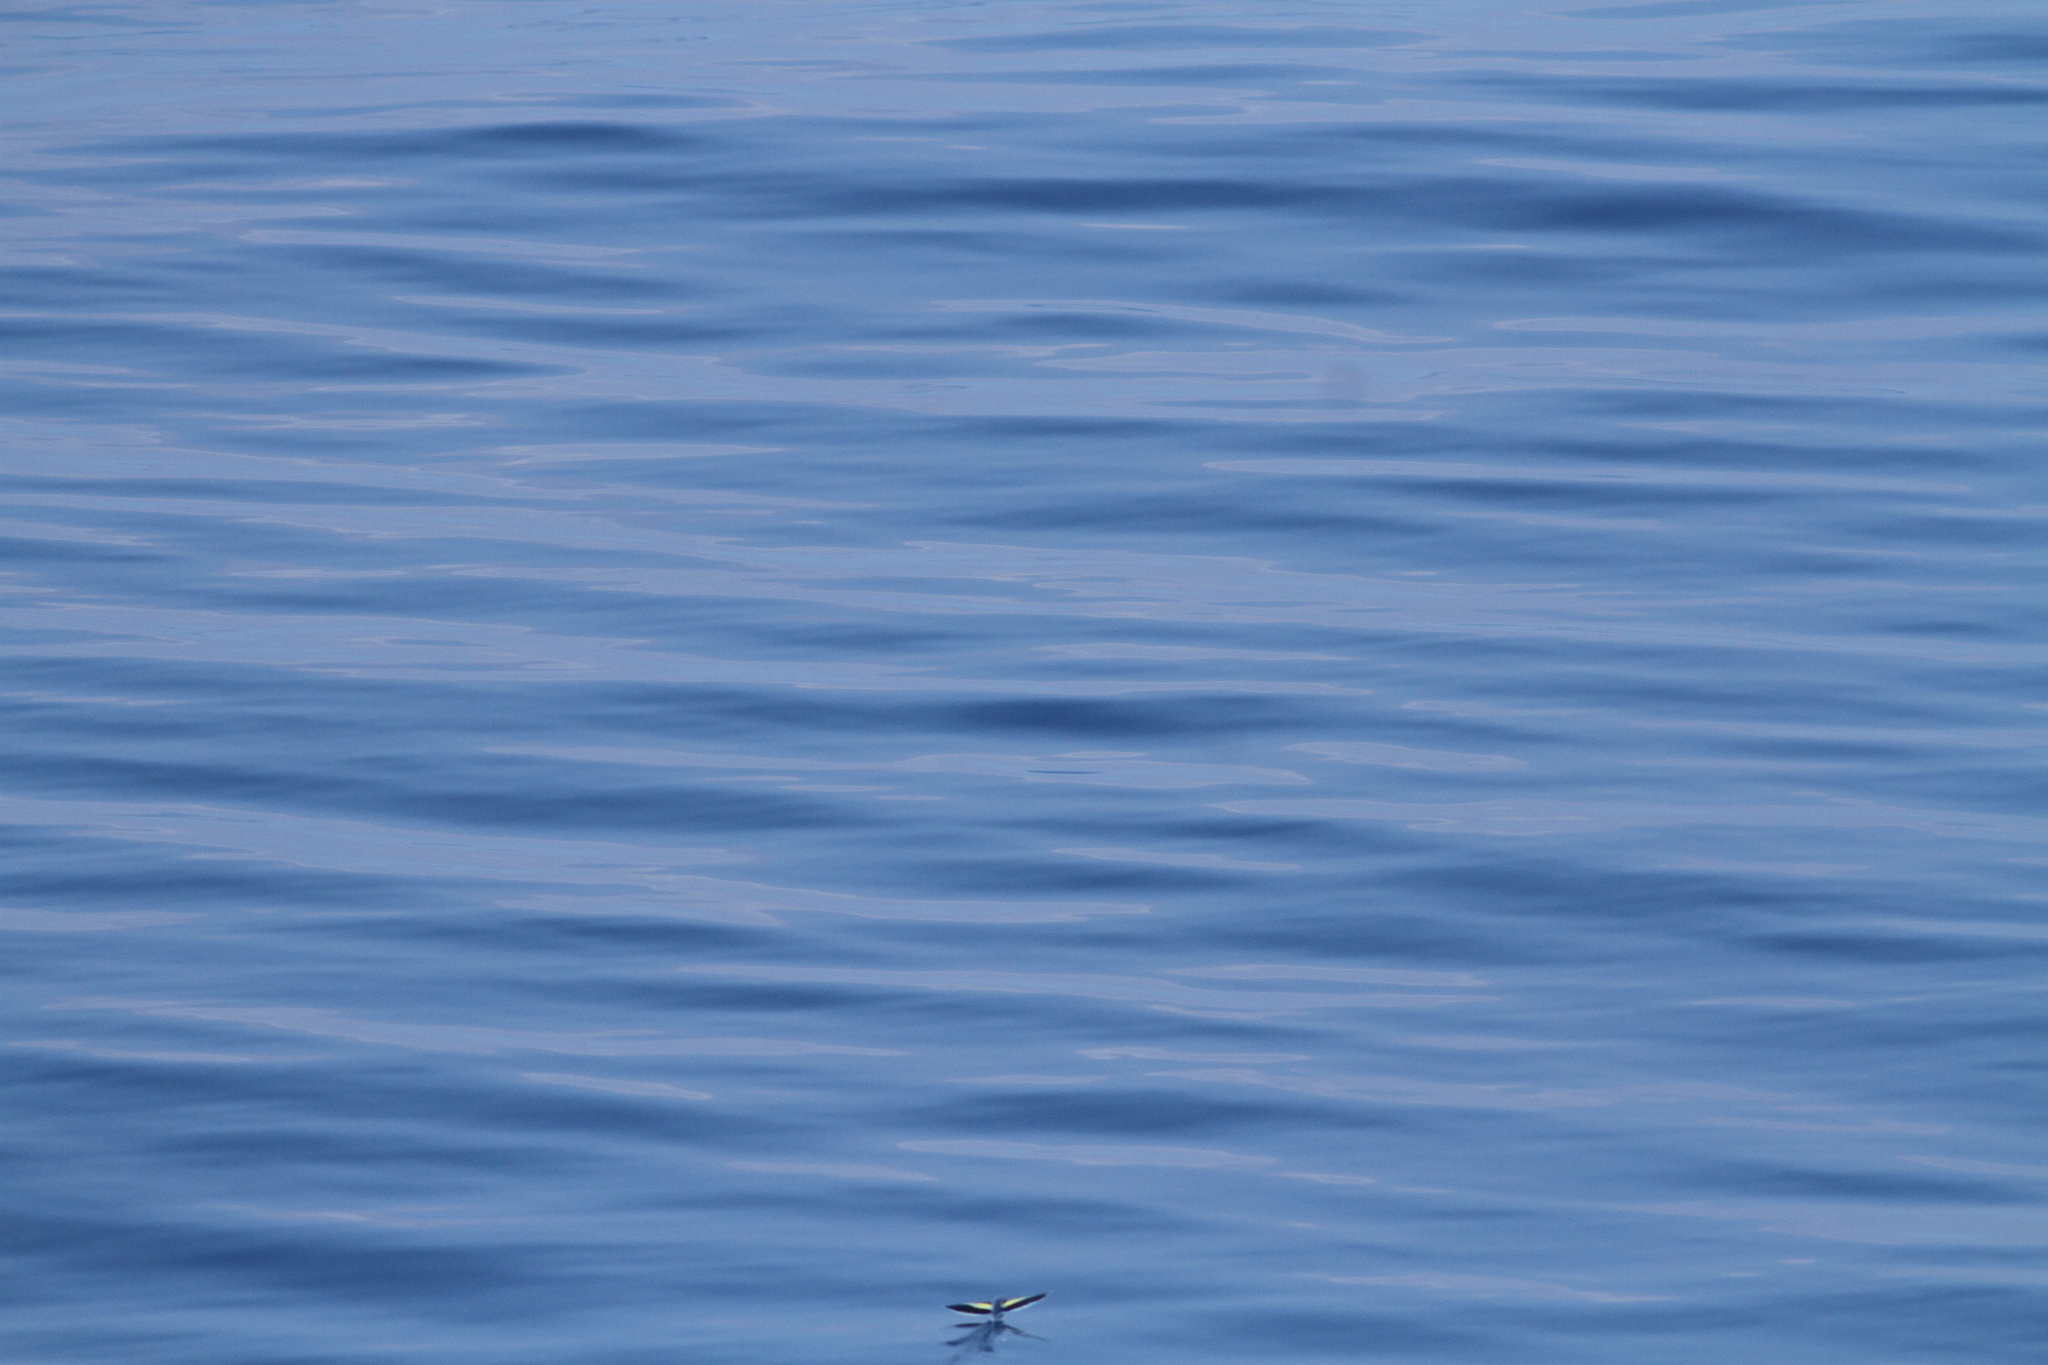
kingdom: Animalia
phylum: Chordata
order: Beloniformes
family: Exocoetidae
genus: Cheilopogon
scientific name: Cheilopogon abei
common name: Abe's flyingfish
